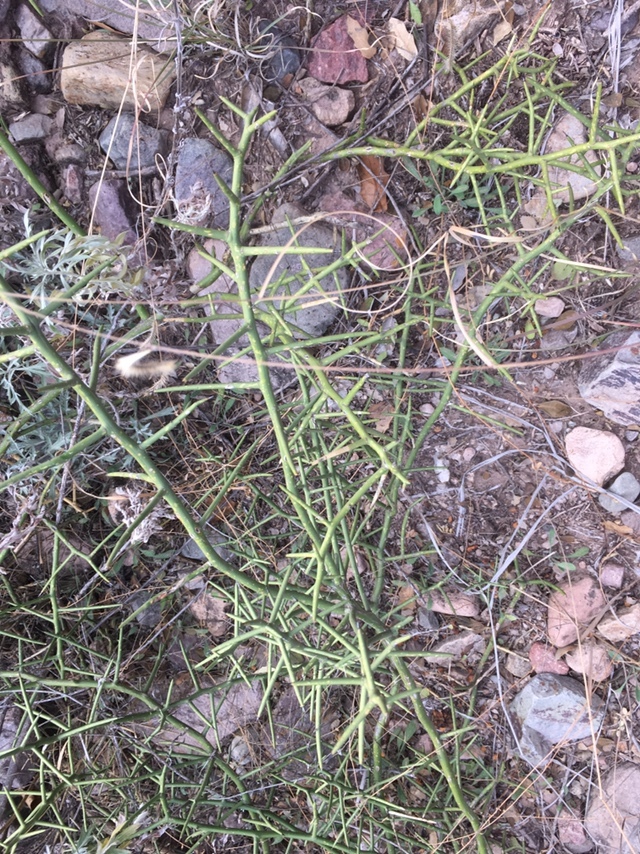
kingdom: Plantae
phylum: Tracheophyta
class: Magnoliopsida
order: Brassicales
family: Koeberliniaceae
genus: Koeberlinia
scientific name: Koeberlinia spinosa
